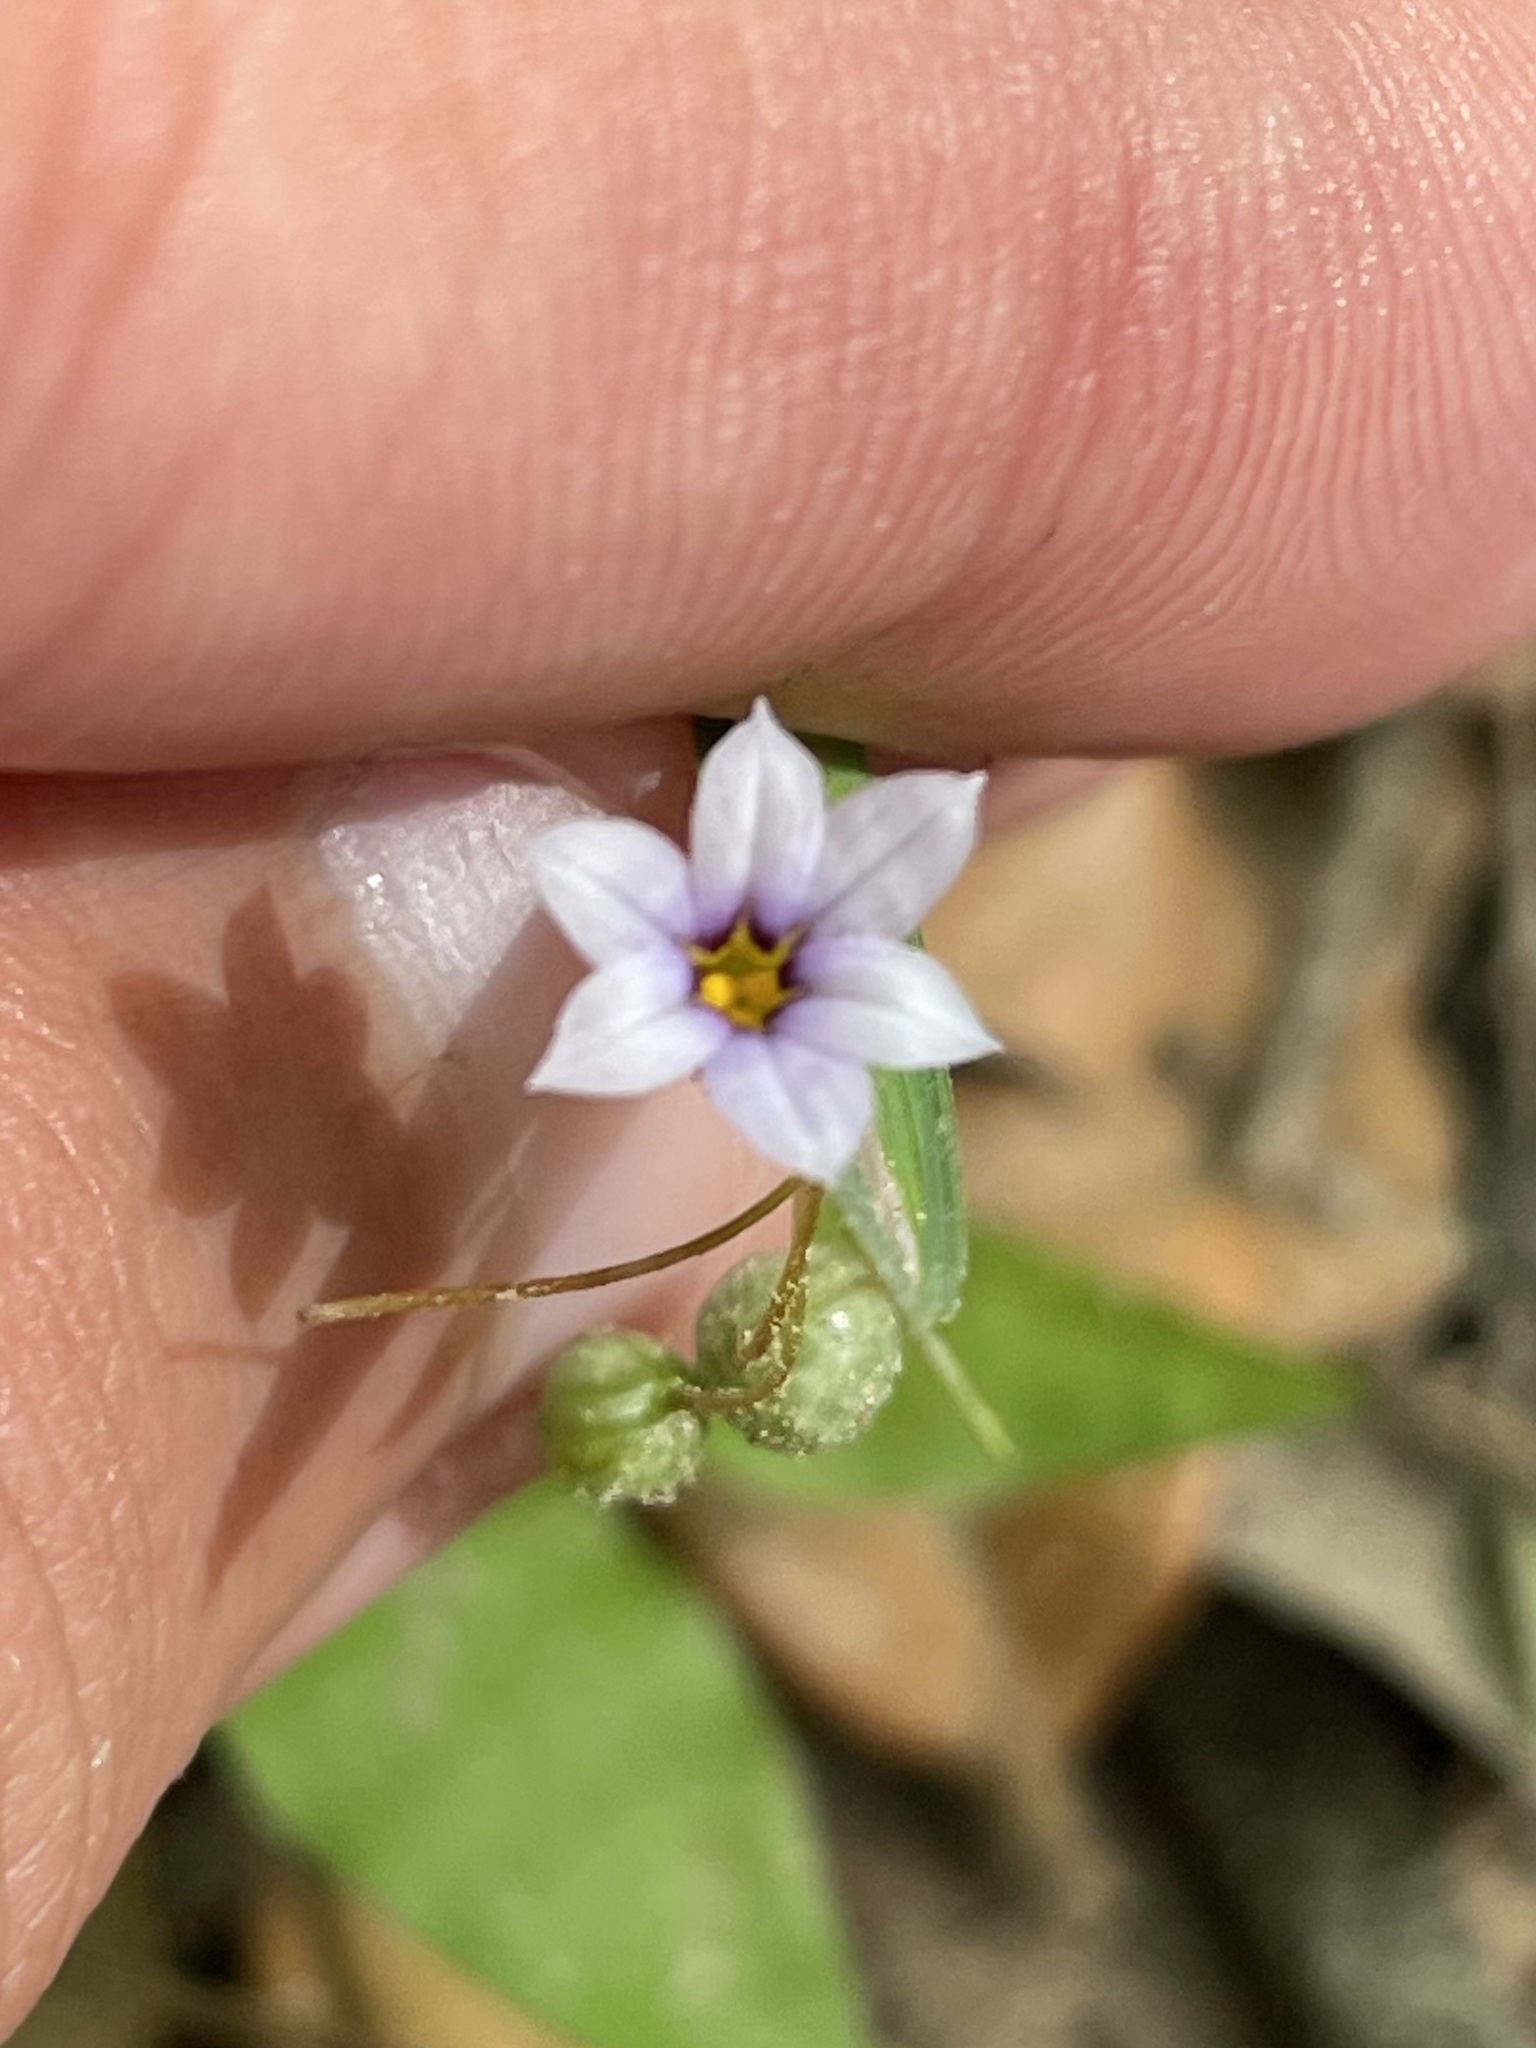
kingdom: Plantae
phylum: Tracheophyta
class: Liliopsida
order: Asparagales
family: Iridaceae
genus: Sisyrinchium
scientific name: Sisyrinchium micranthum
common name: Bermuda pigroot
